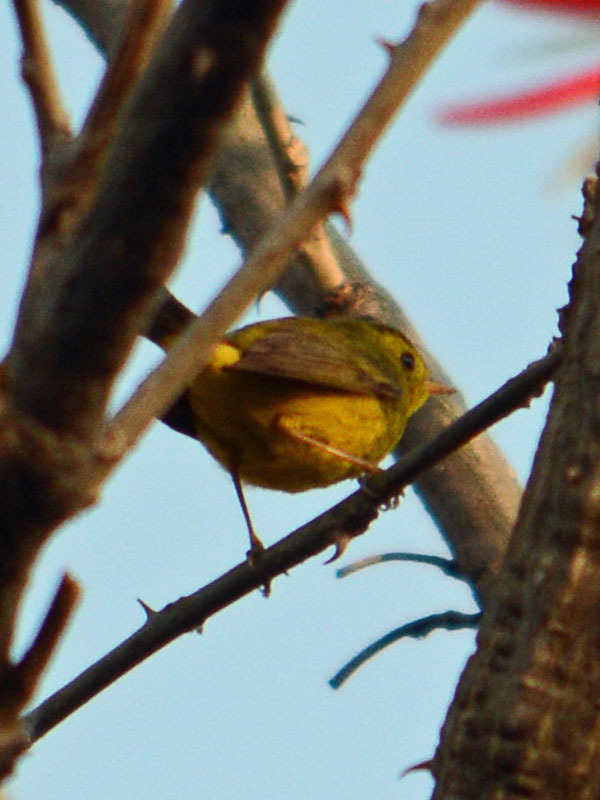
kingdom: Animalia
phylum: Chordata
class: Aves
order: Passeriformes
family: Parulidae
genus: Cardellina
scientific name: Cardellina pusilla
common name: Wilson's warbler
